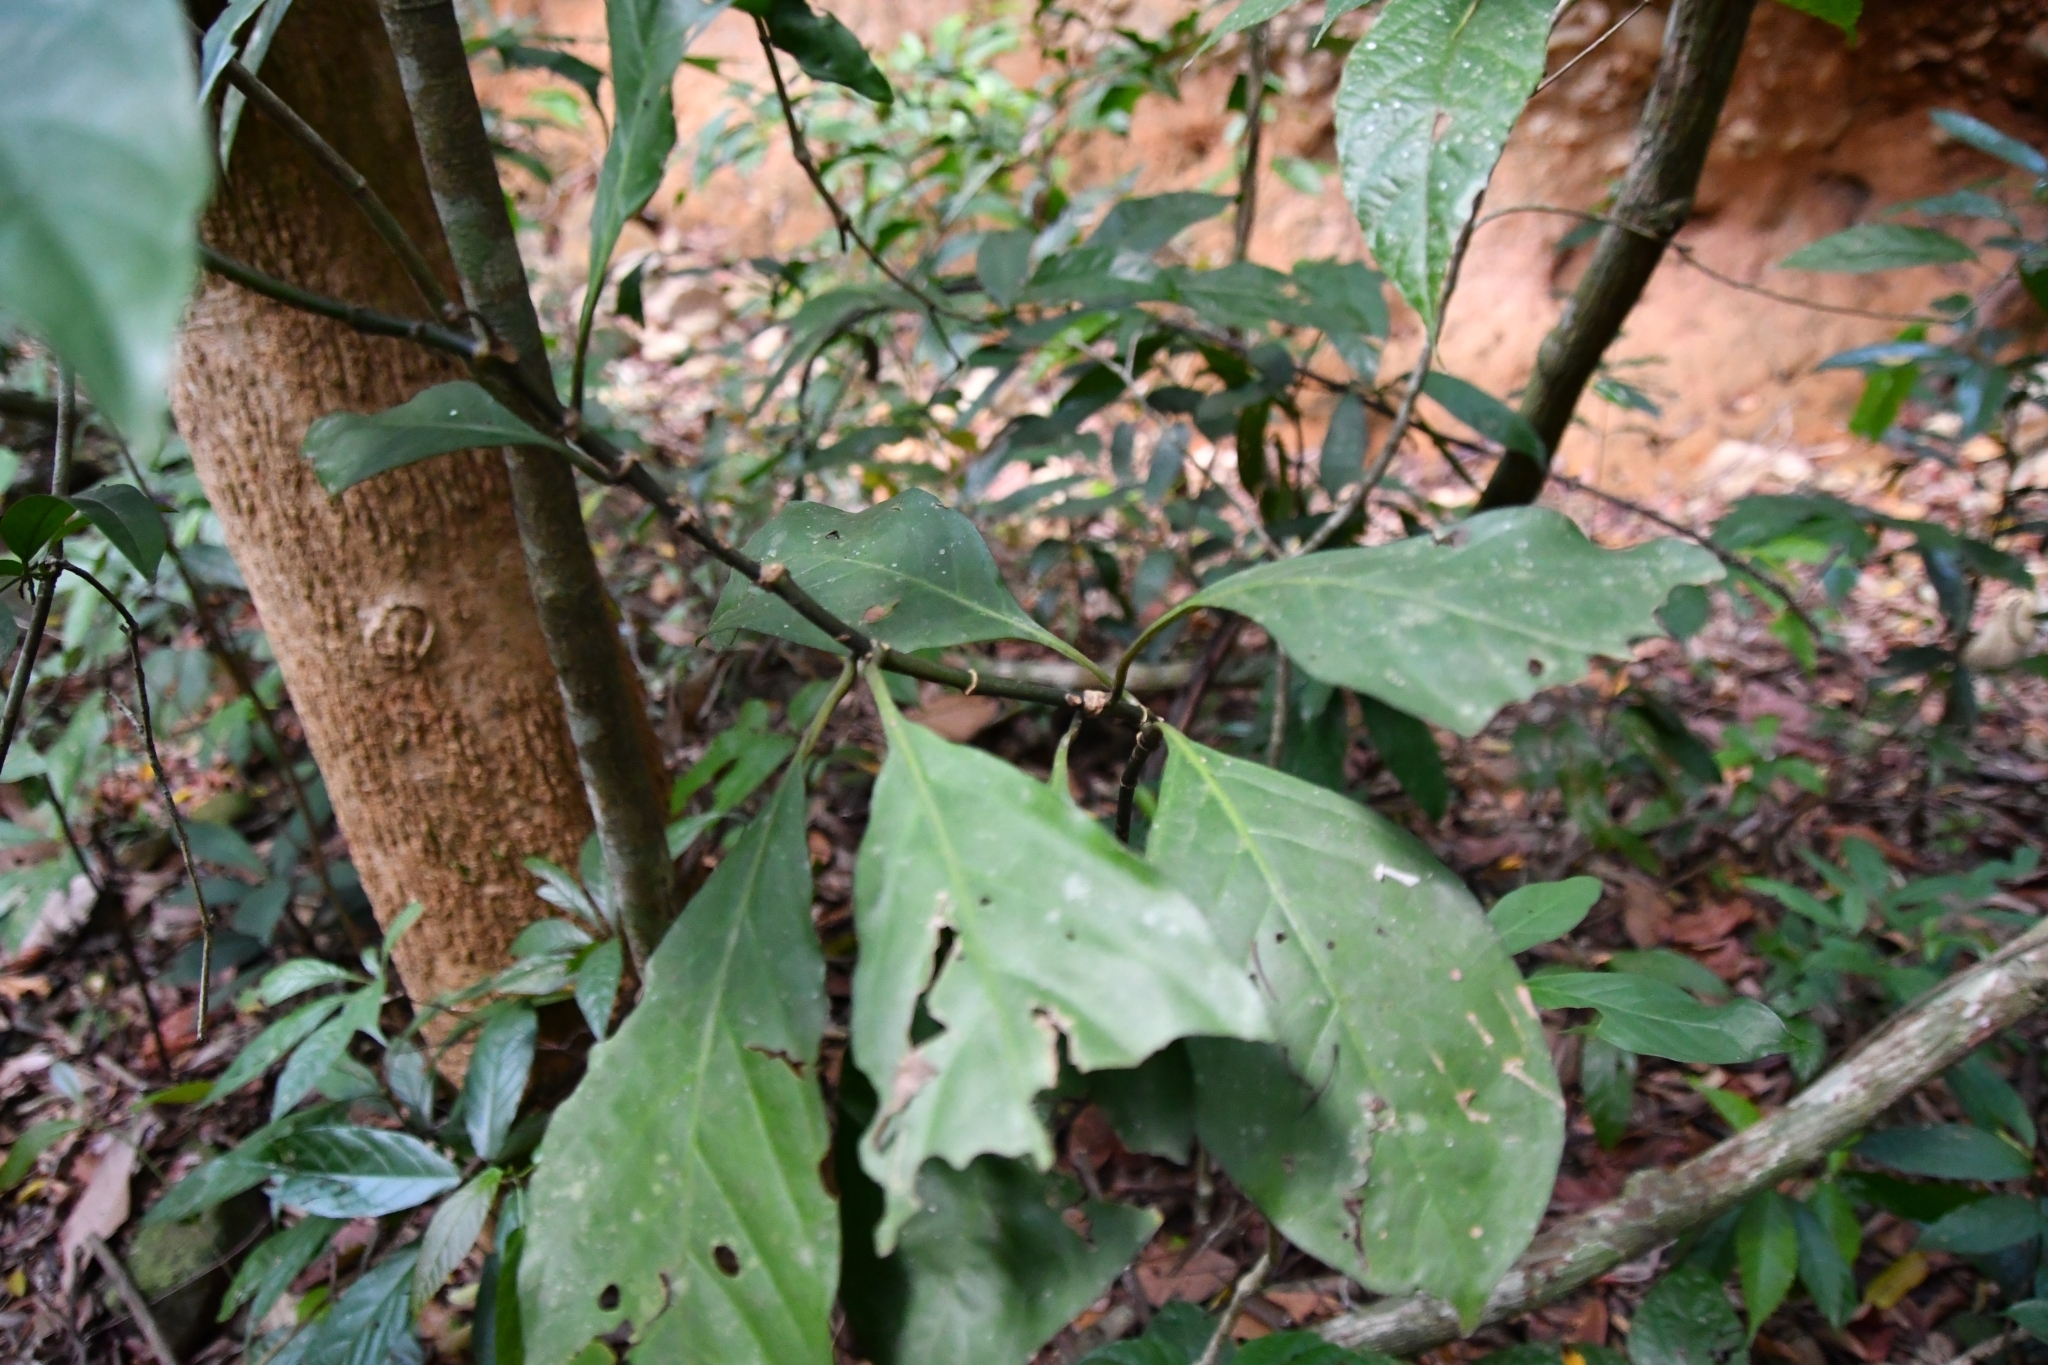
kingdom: Plantae
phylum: Tracheophyta
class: Magnoliopsida
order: Gentianales
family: Rubiaceae
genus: Chassalia
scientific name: Chassalia curviflora
